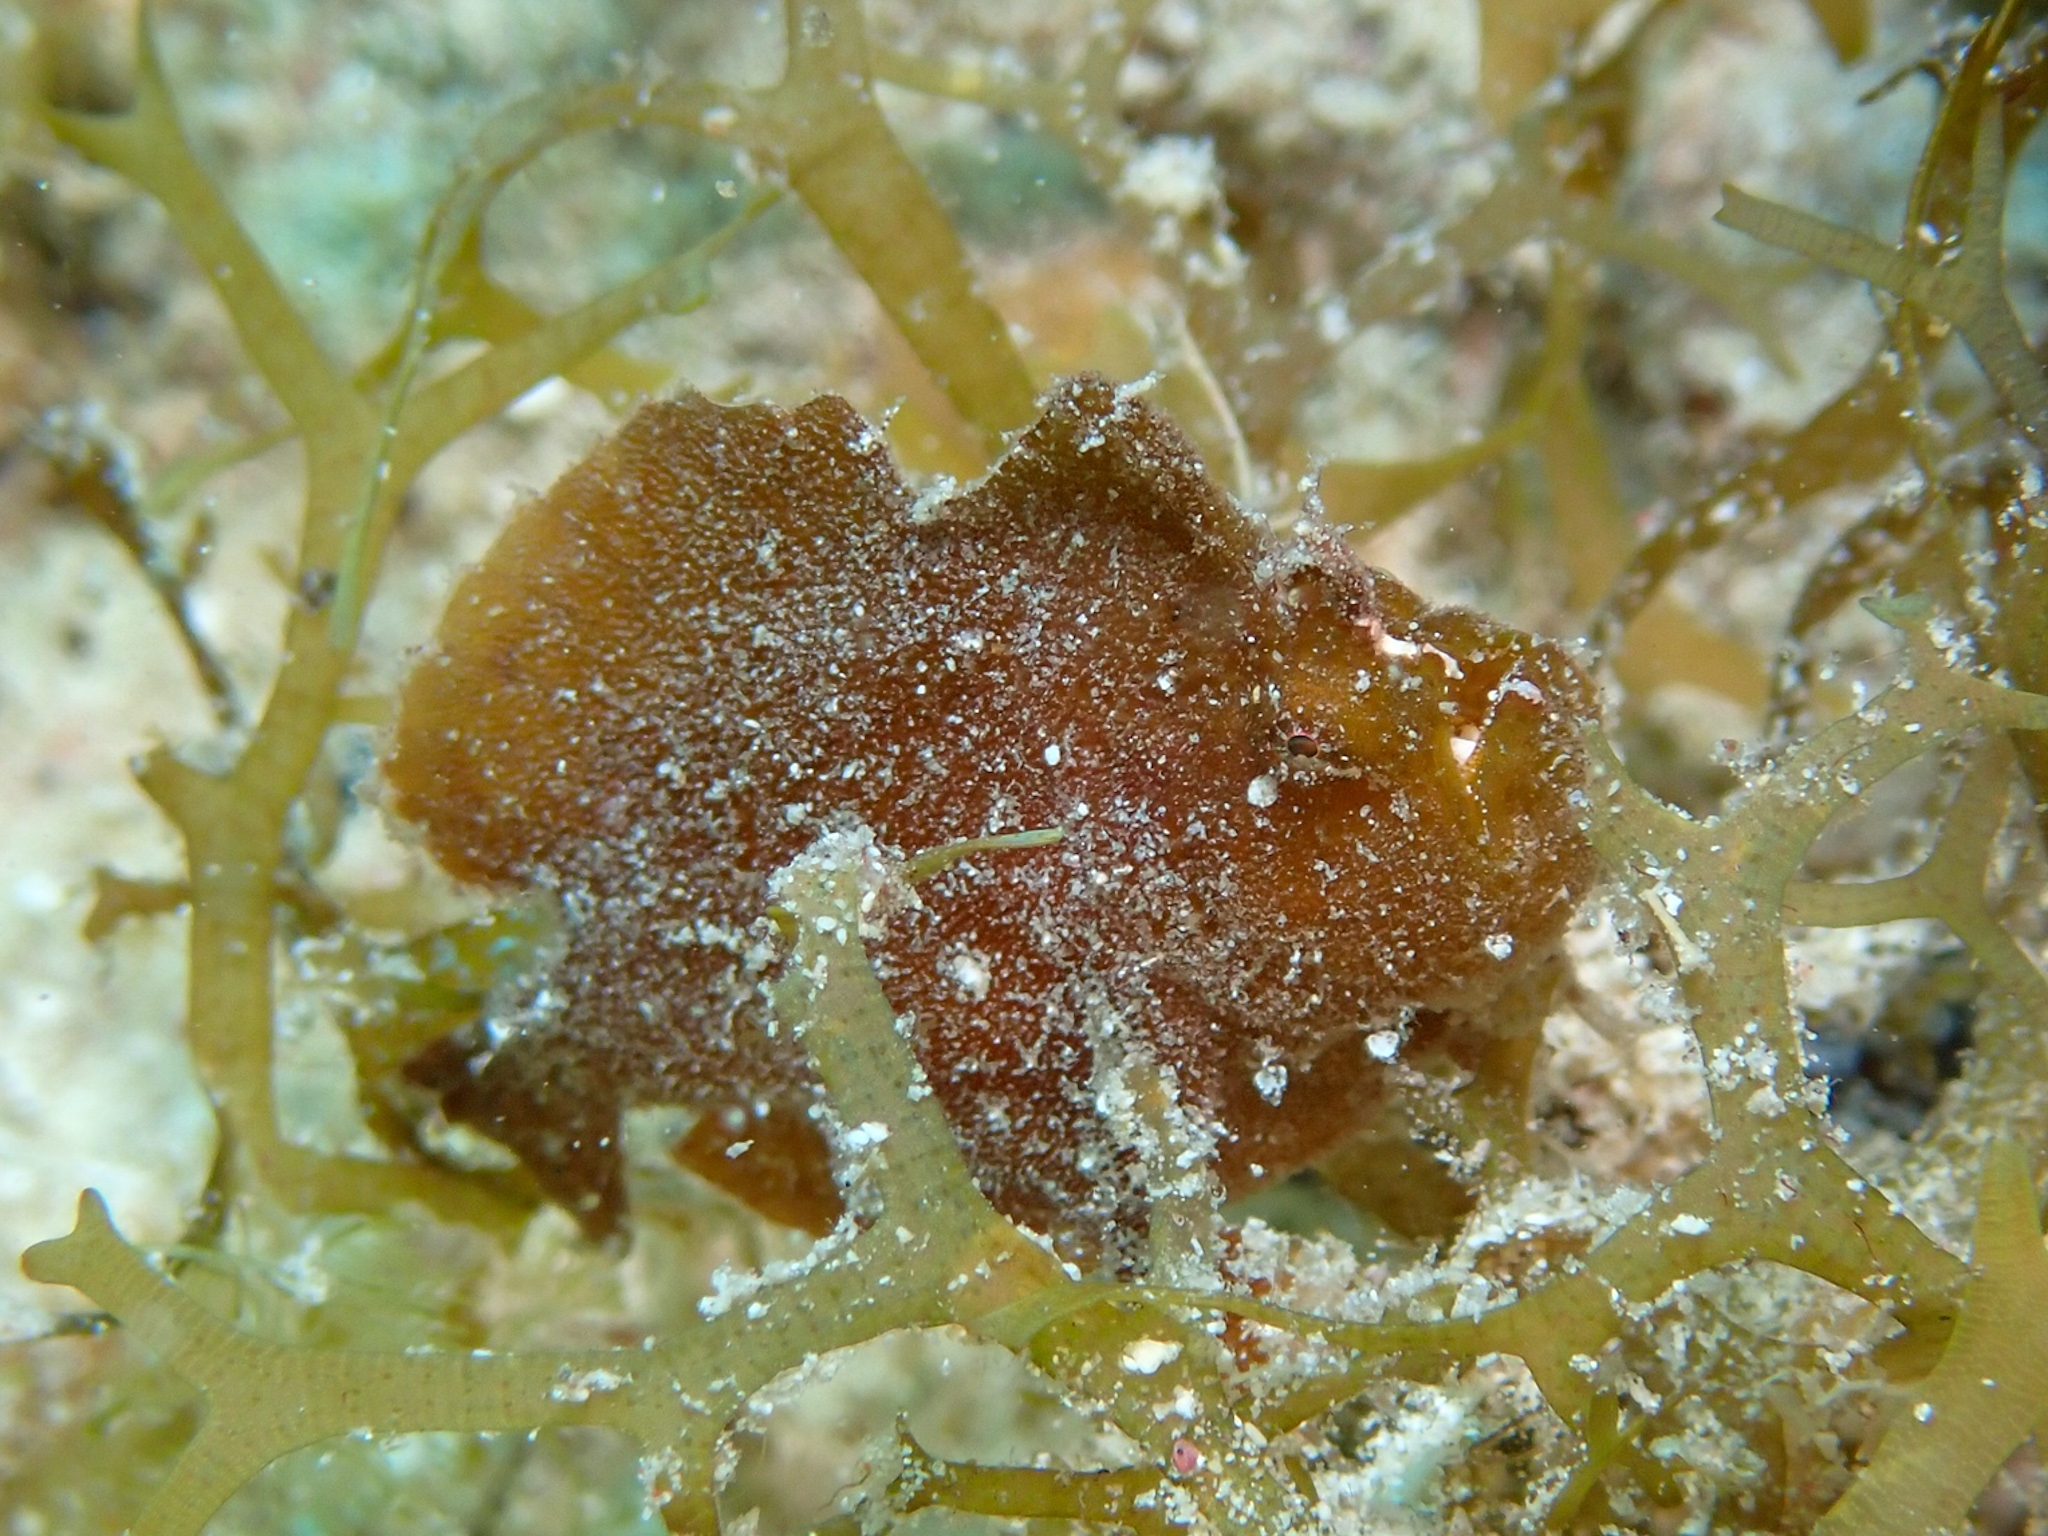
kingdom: Animalia
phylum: Chordata
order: Lophiiformes
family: Antennariidae
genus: Antennarius
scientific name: Antennarius pauciradiatus
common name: Dwarf frogfish
